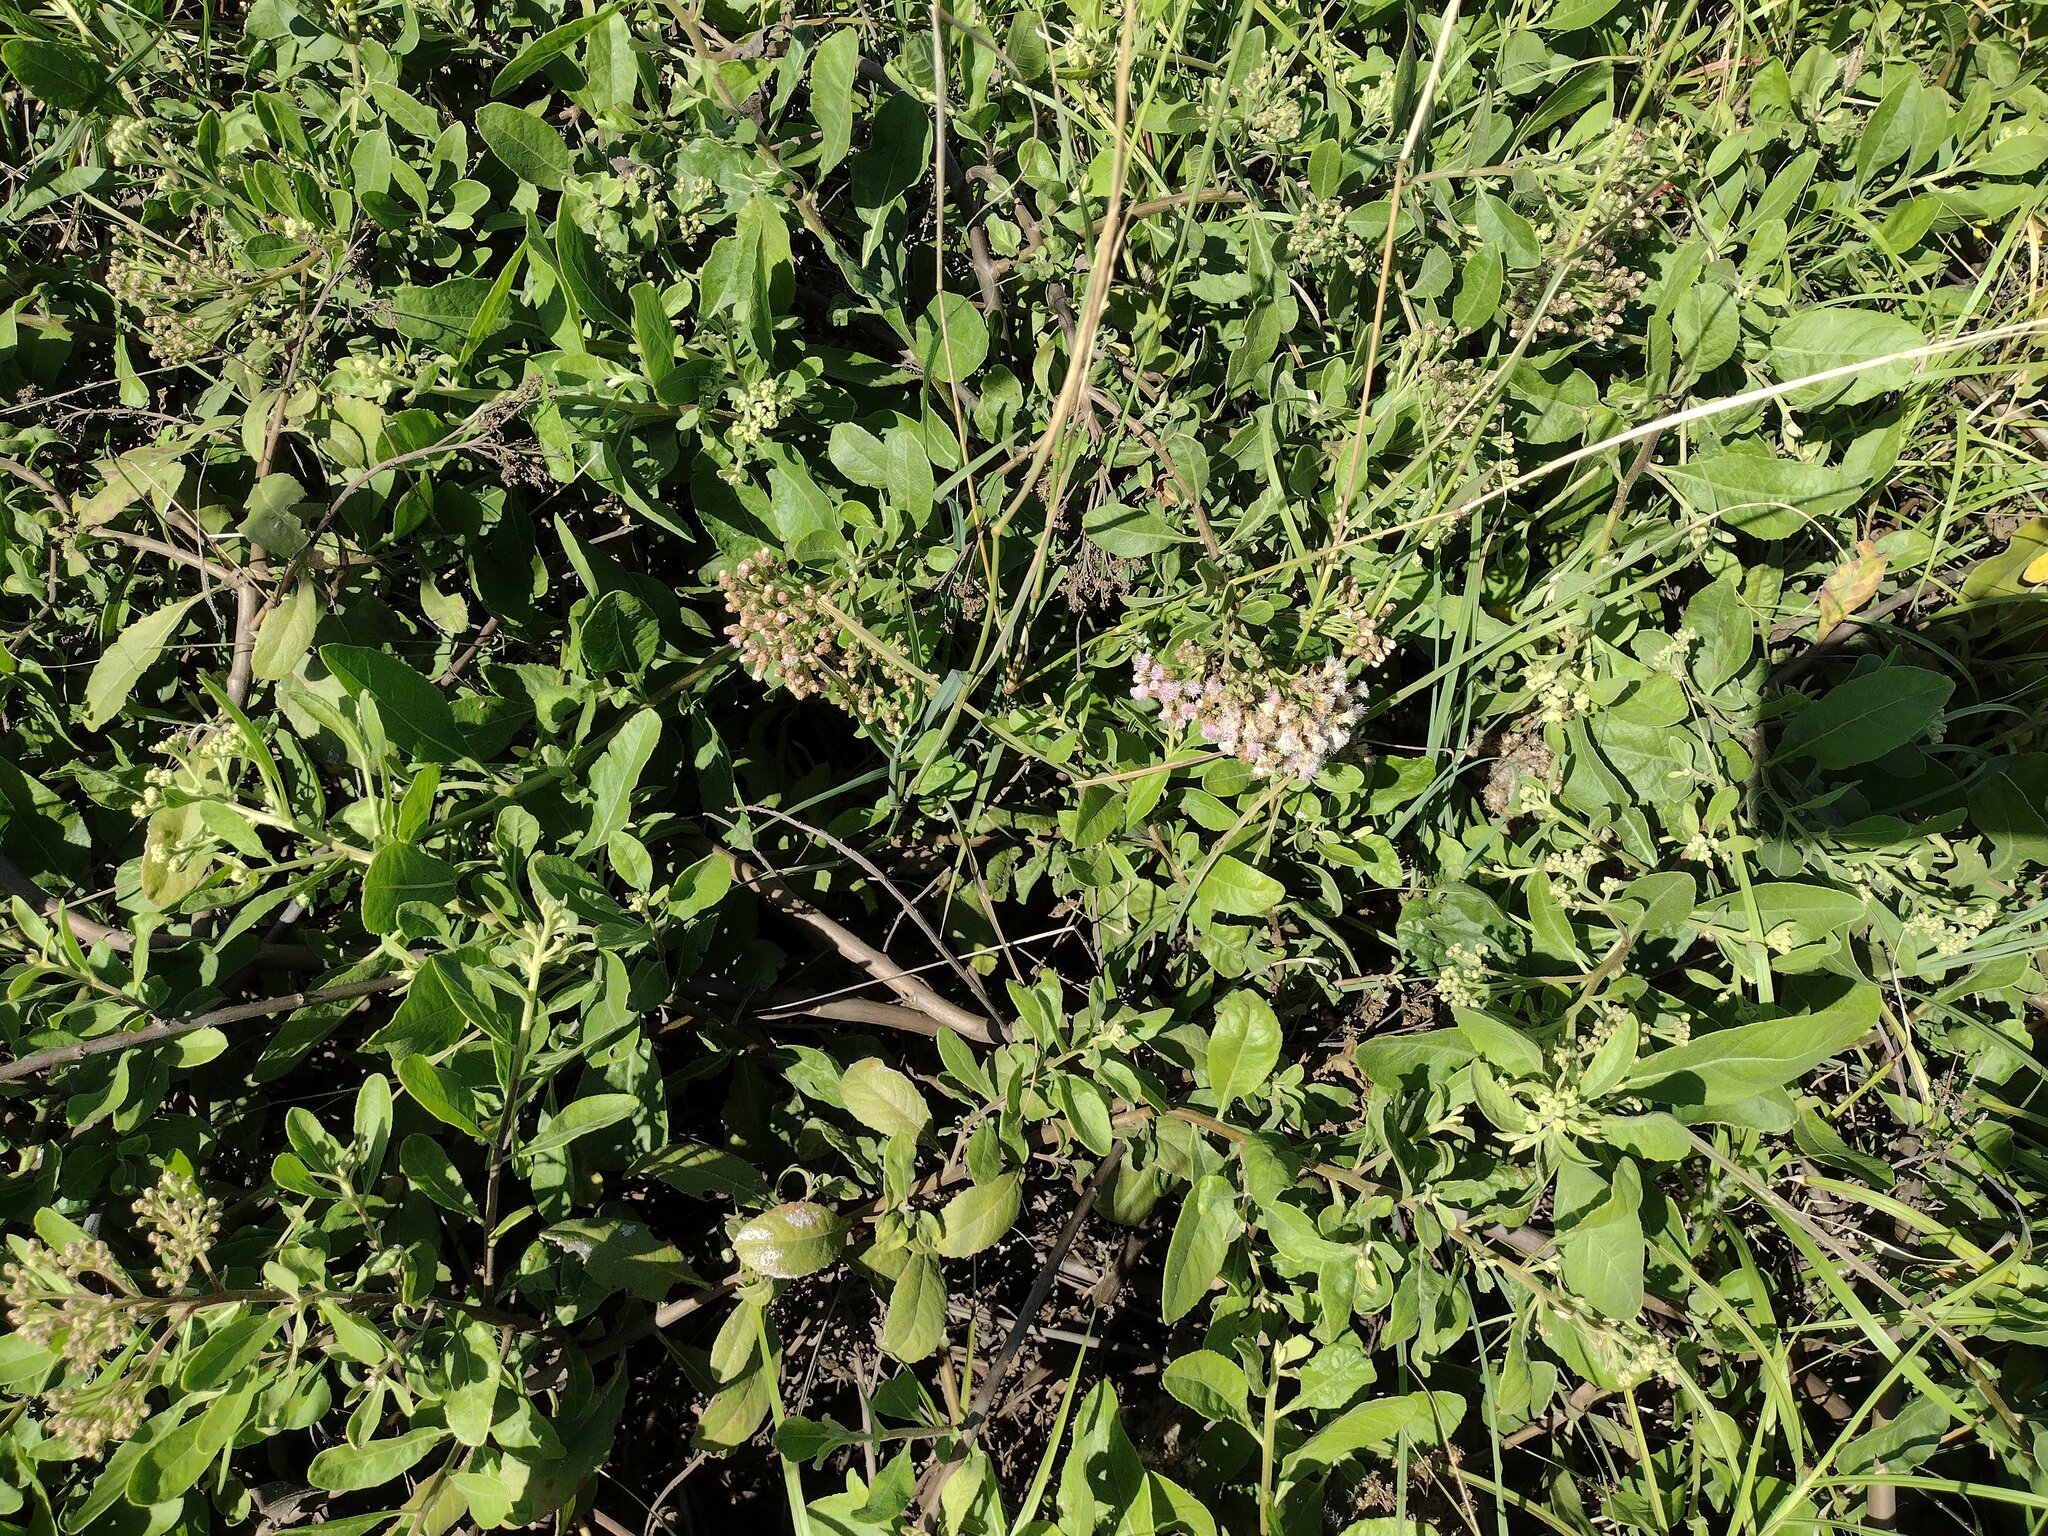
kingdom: Plantae
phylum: Tracheophyta
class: Magnoliopsida
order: Asterales
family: Asteraceae
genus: Pluchea
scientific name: Pluchea fosbergii
